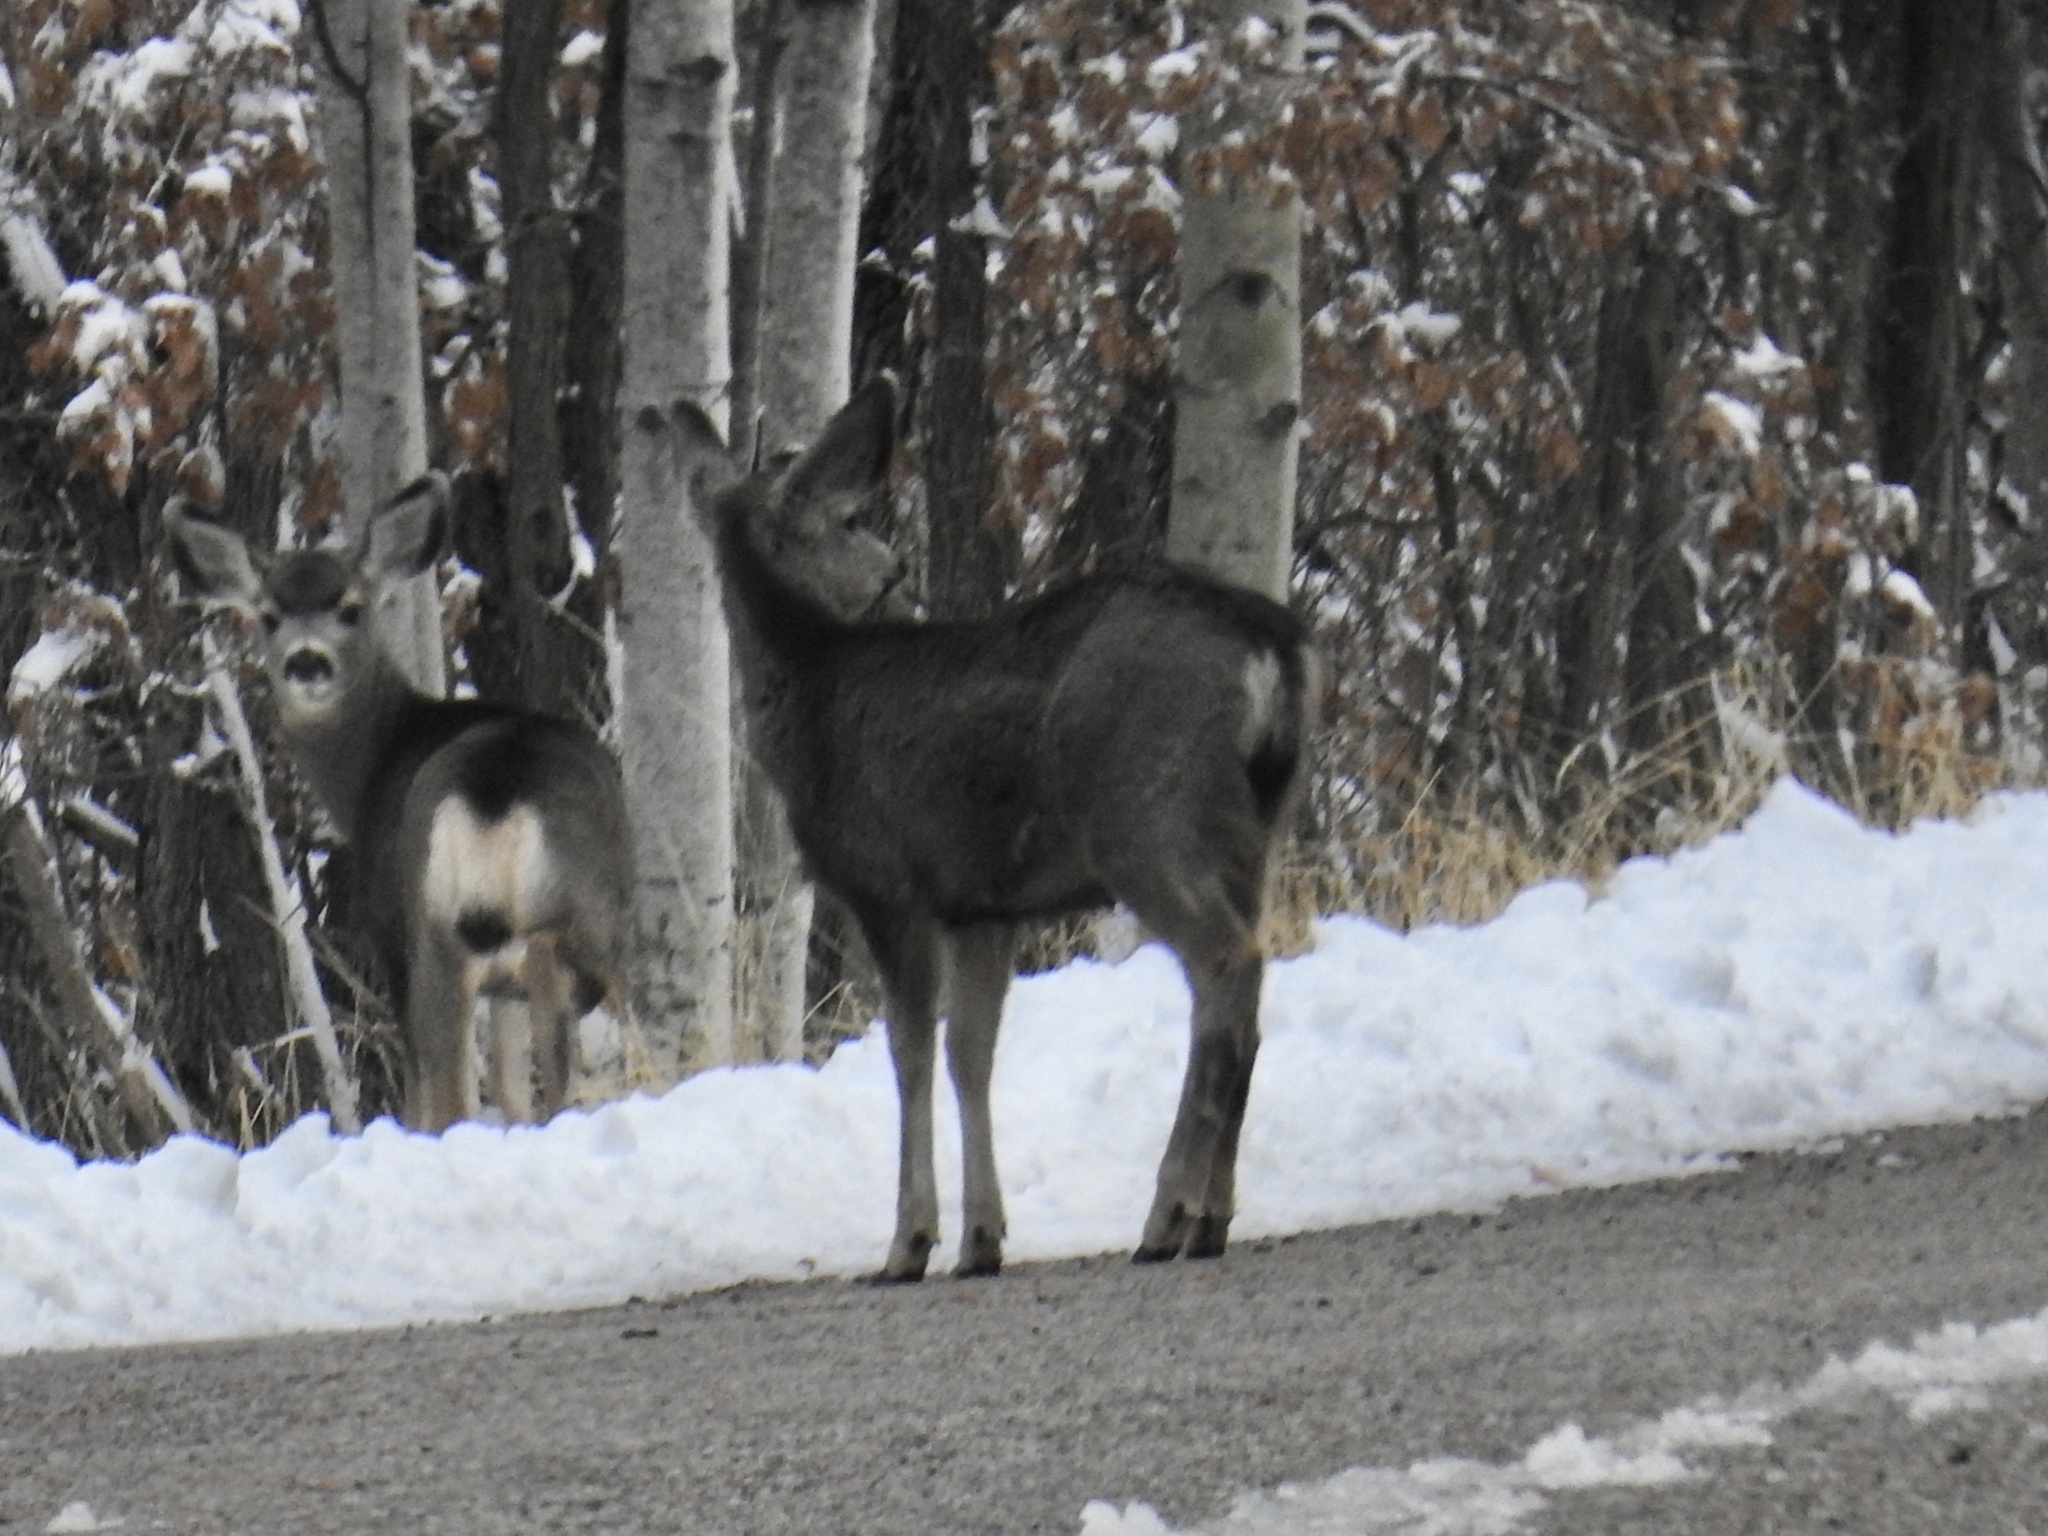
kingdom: Animalia
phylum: Chordata
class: Mammalia
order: Artiodactyla
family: Cervidae
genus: Odocoileus
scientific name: Odocoileus
